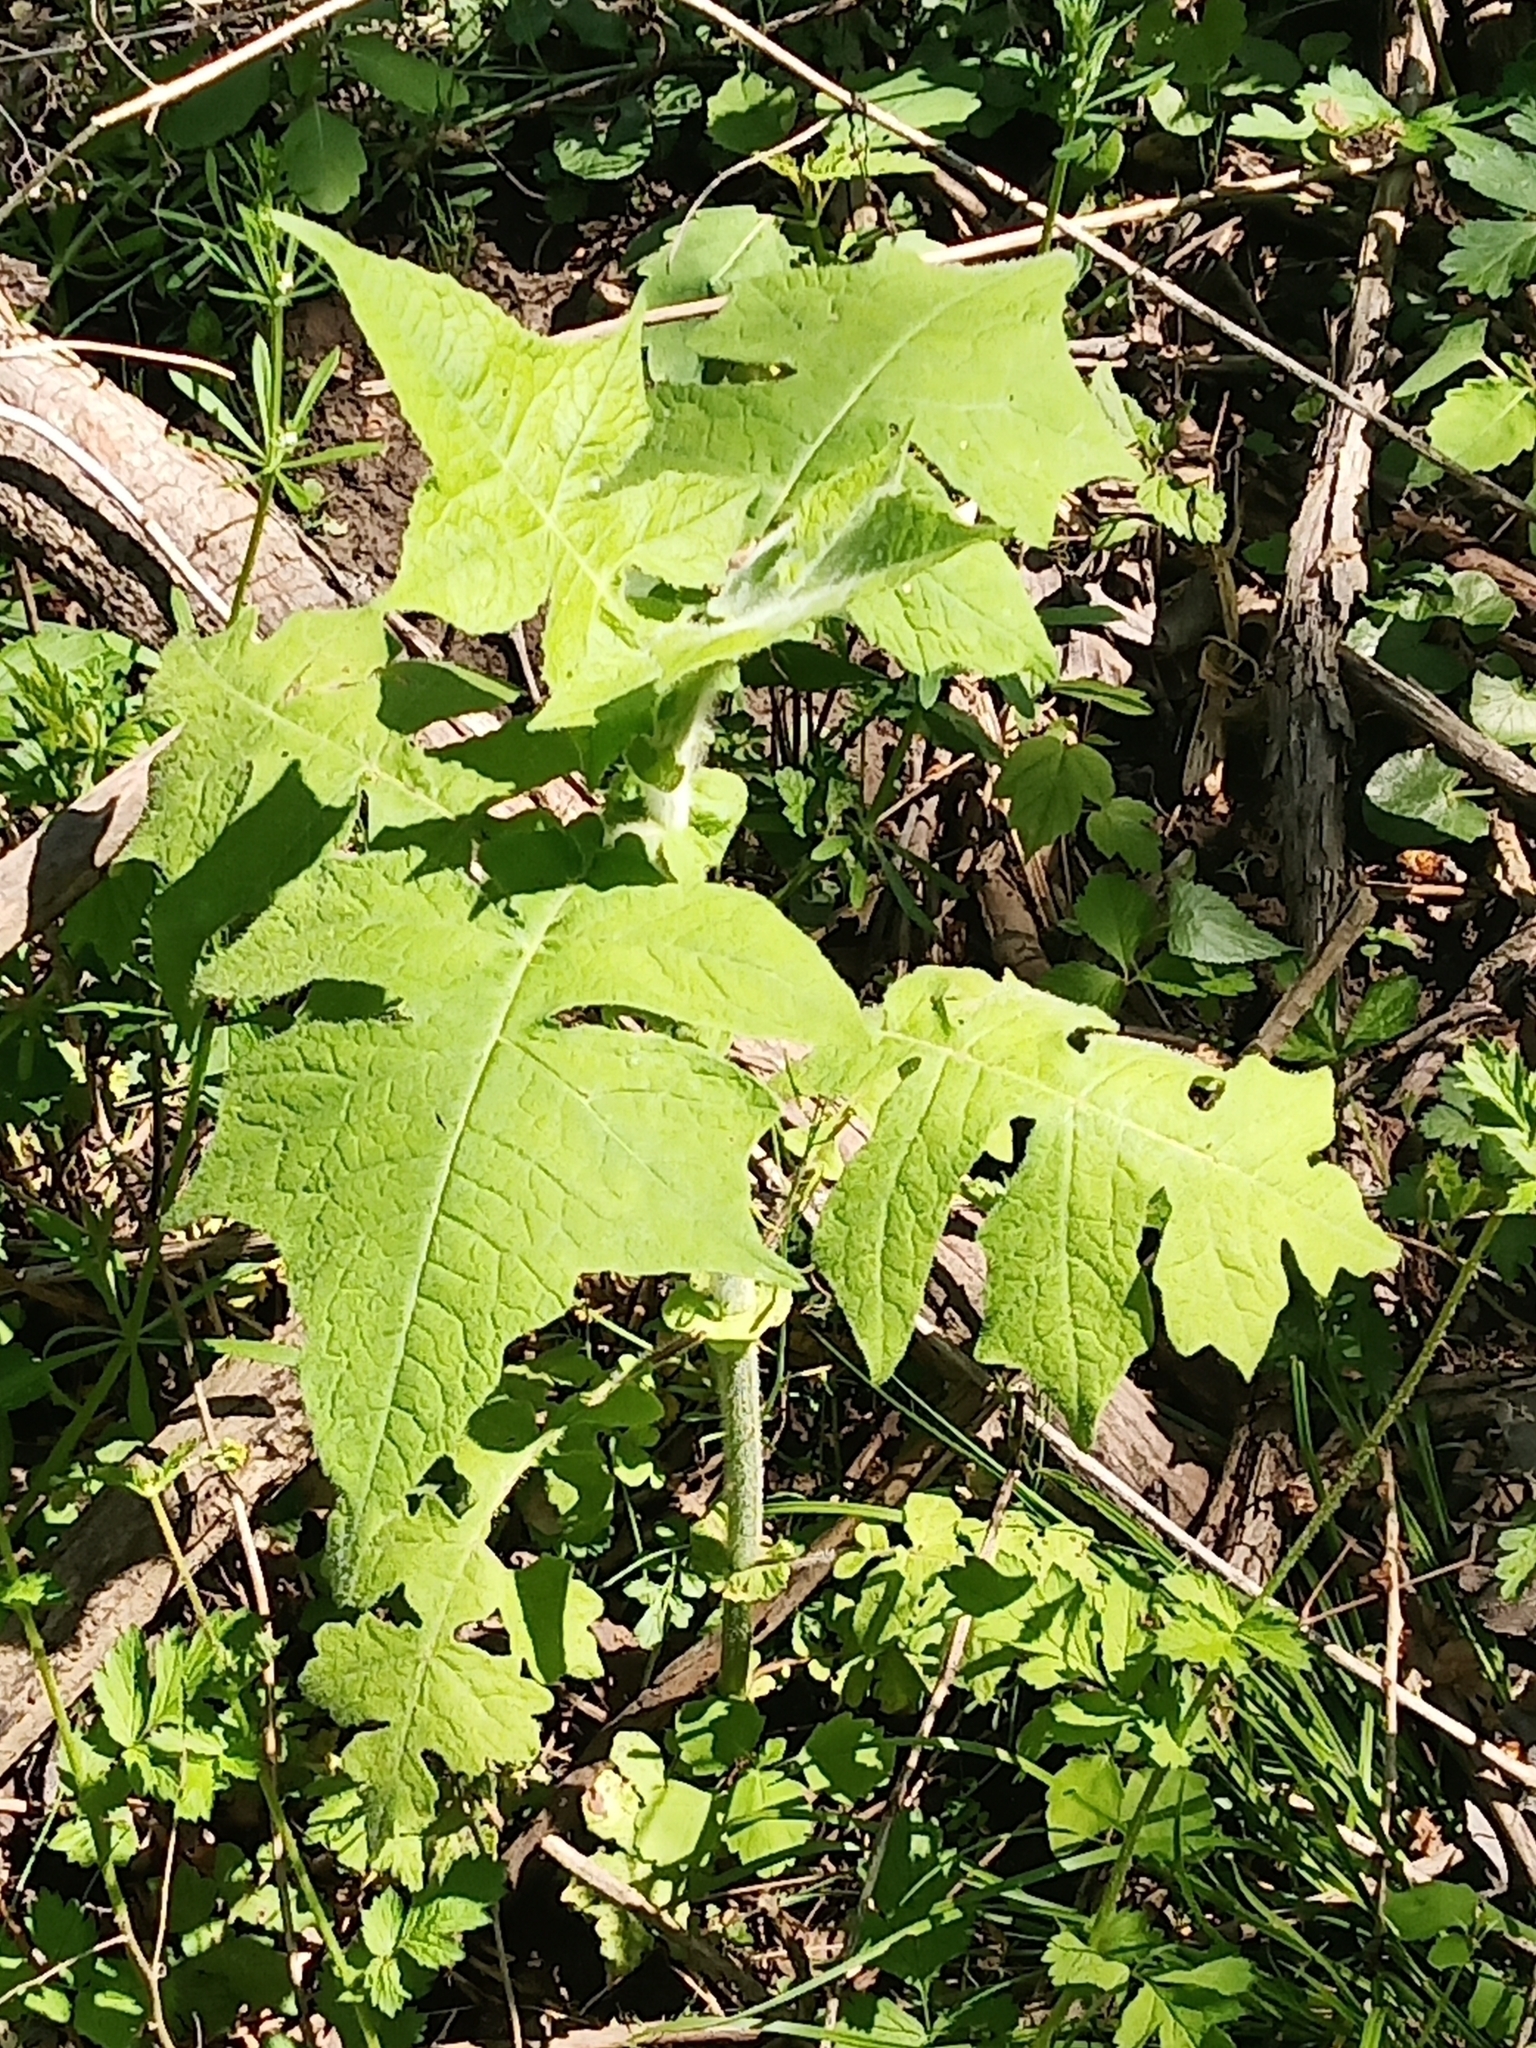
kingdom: Plantae
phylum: Tracheophyta
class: Magnoliopsida
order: Asterales
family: Asteraceae
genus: Polymnia
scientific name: Polymnia canadensis
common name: Pale-flowered leafcup
